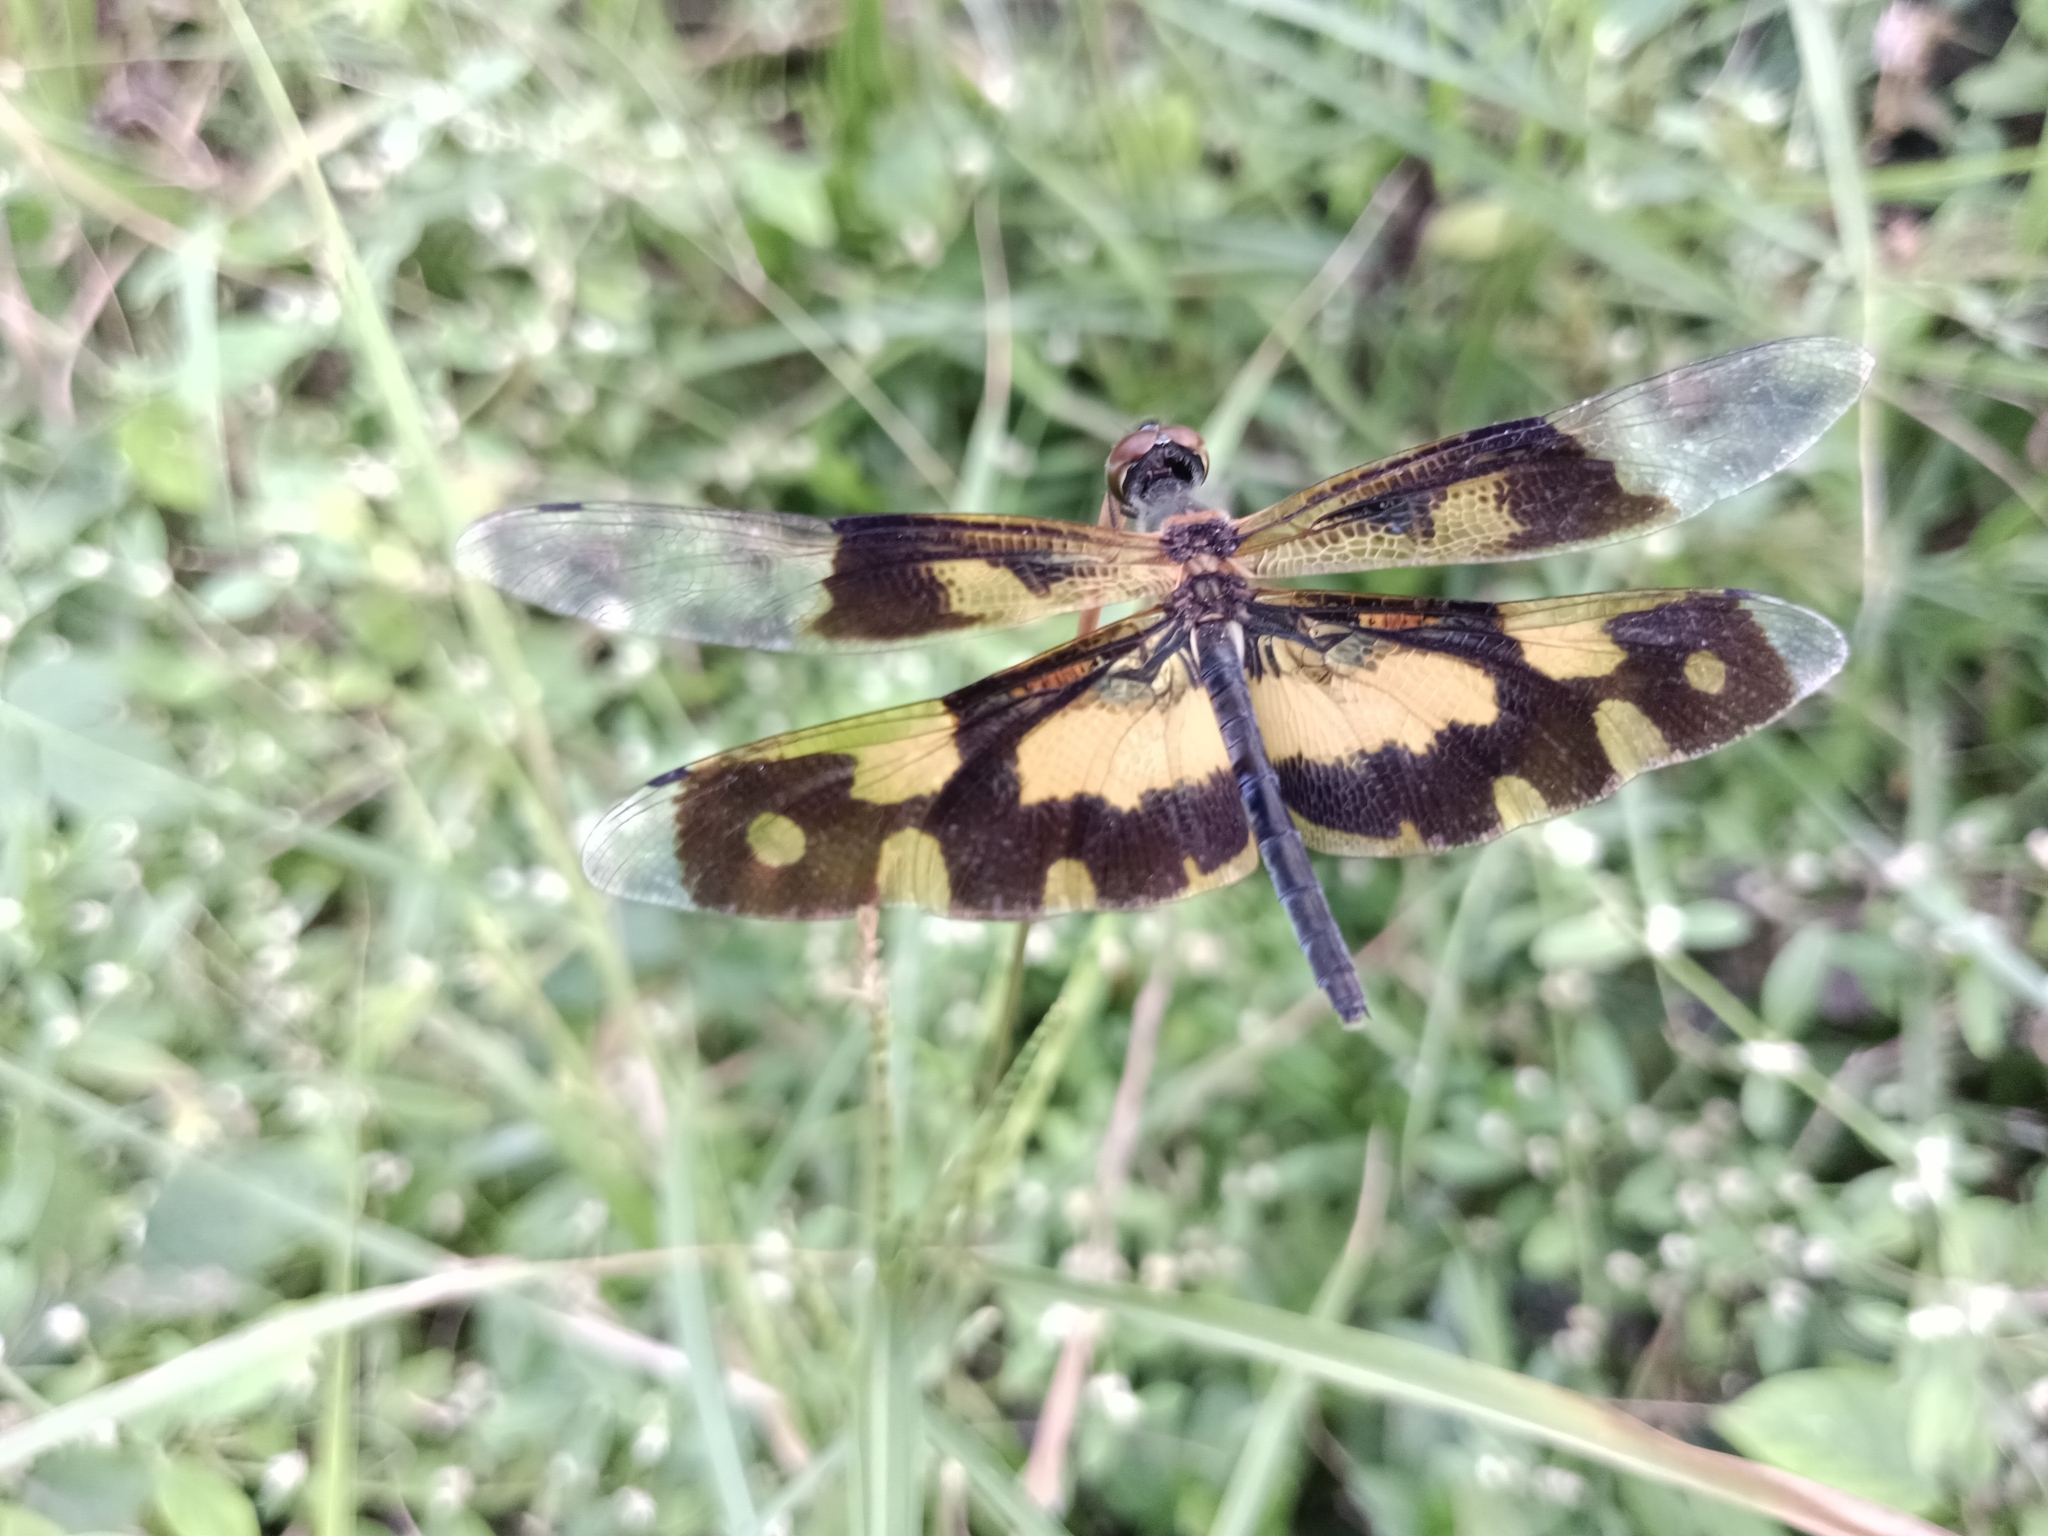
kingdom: Animalia
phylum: Arthropoda
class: Insecta
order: Odonata
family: Libellulidae
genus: Rhyothemis
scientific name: Rhyothemis variegata
